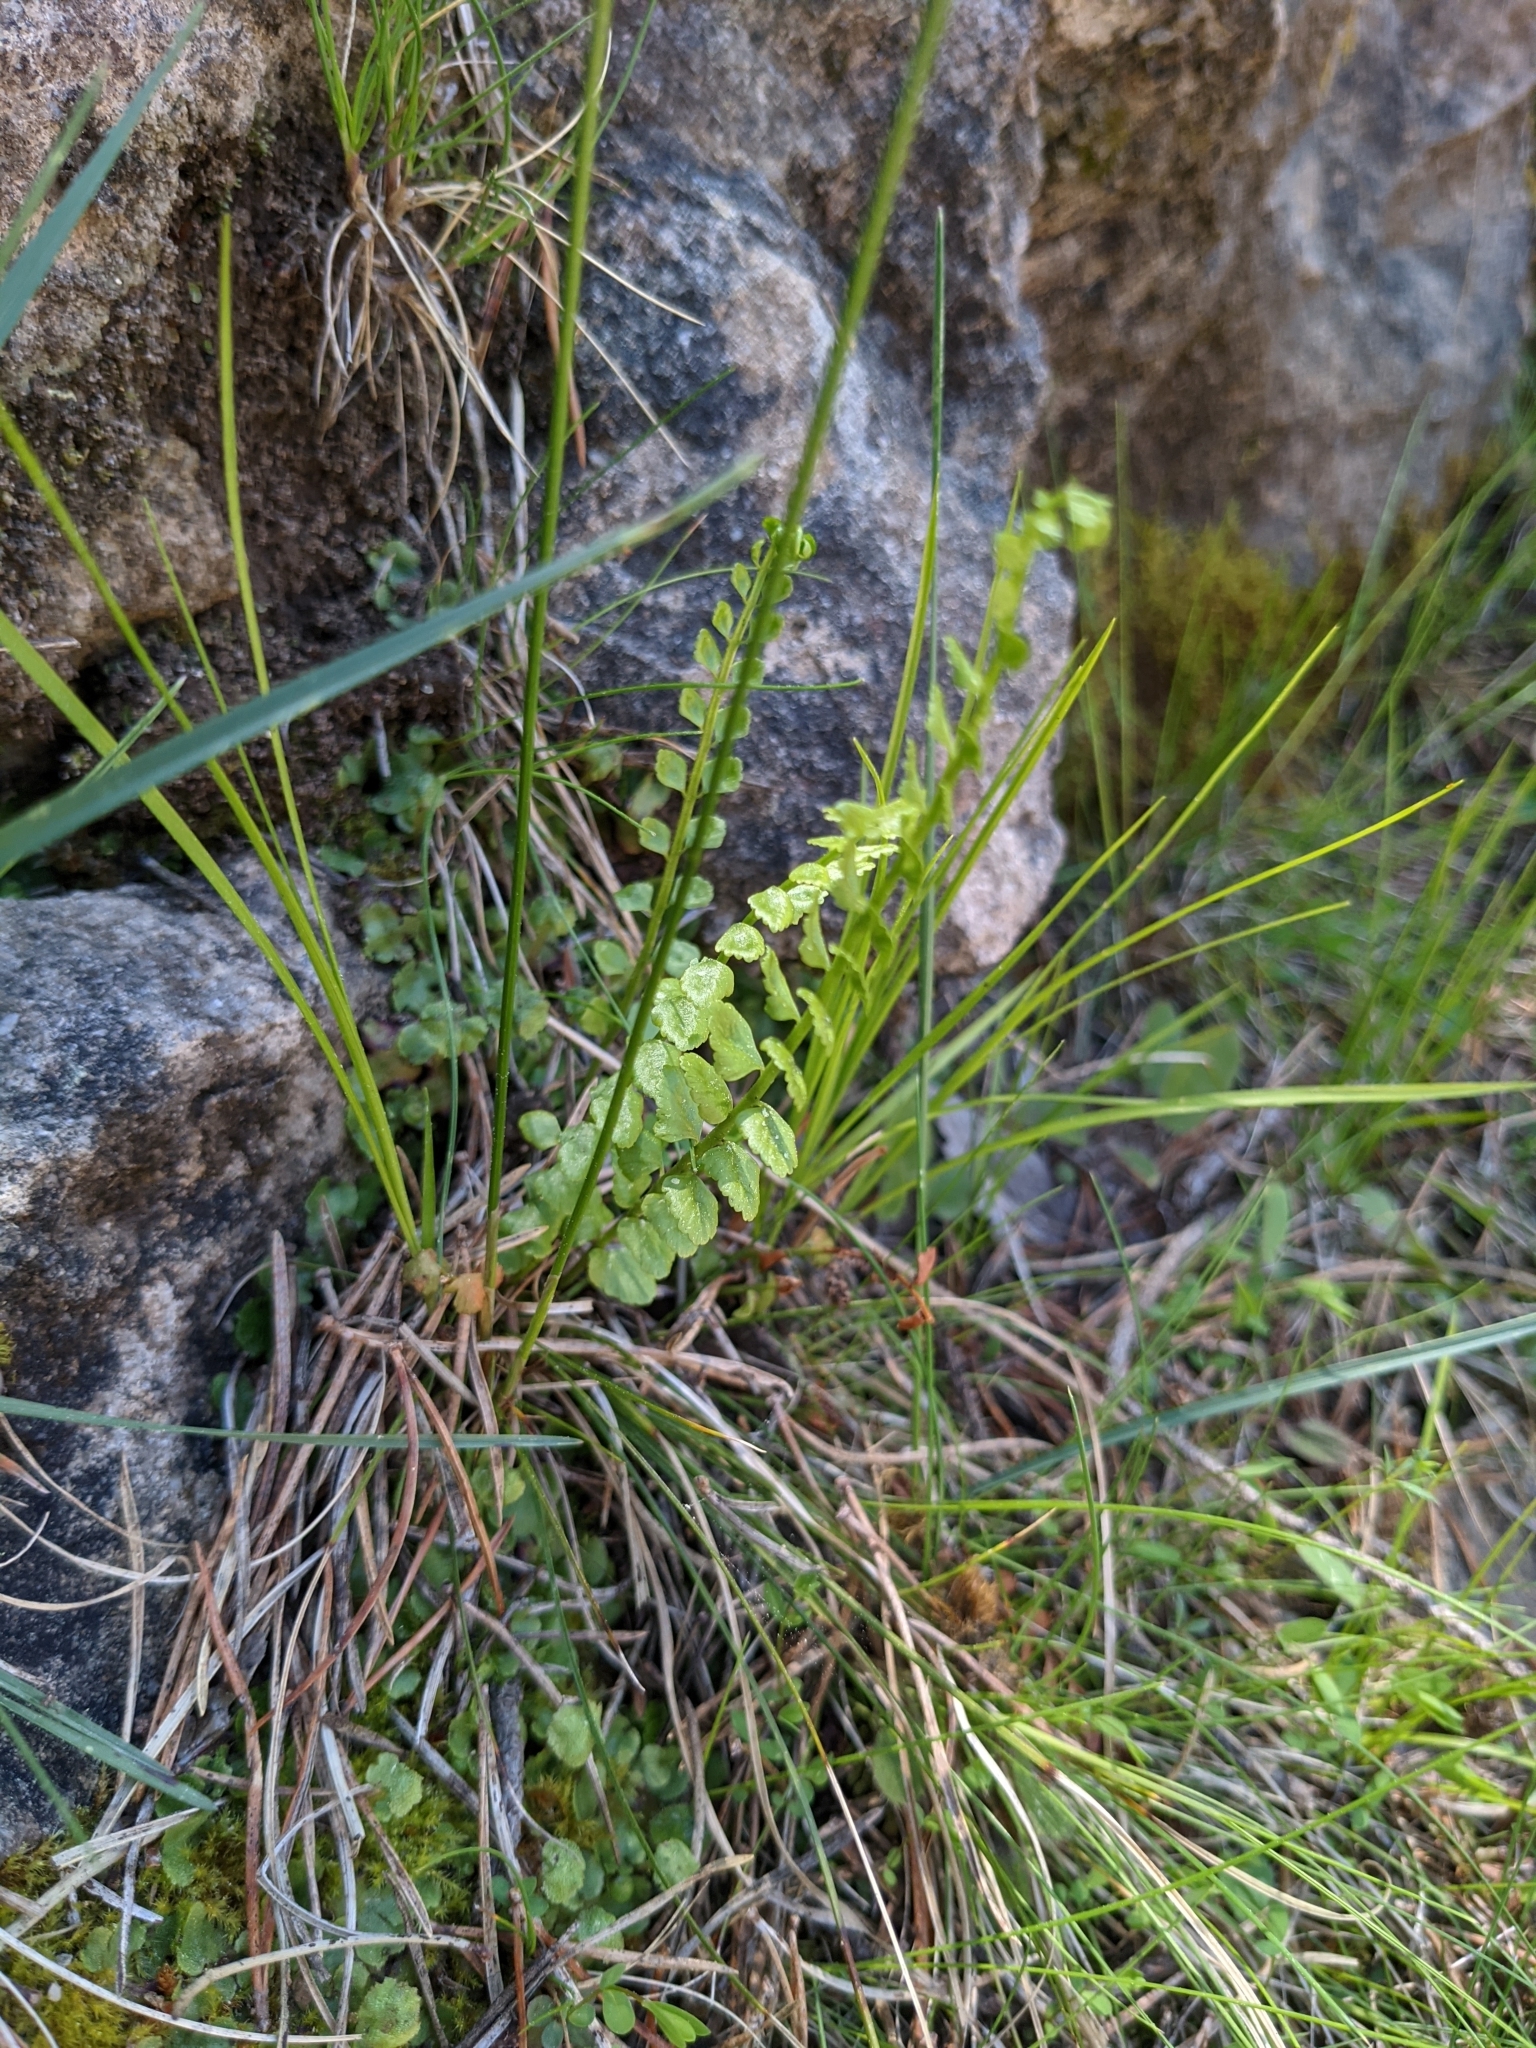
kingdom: Plantae
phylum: Tracheophyta
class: Polypodiopsida
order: Polypodiales
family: Aspleniaceae
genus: Asplenium
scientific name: Asplenium viride
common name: Green spleenwort
